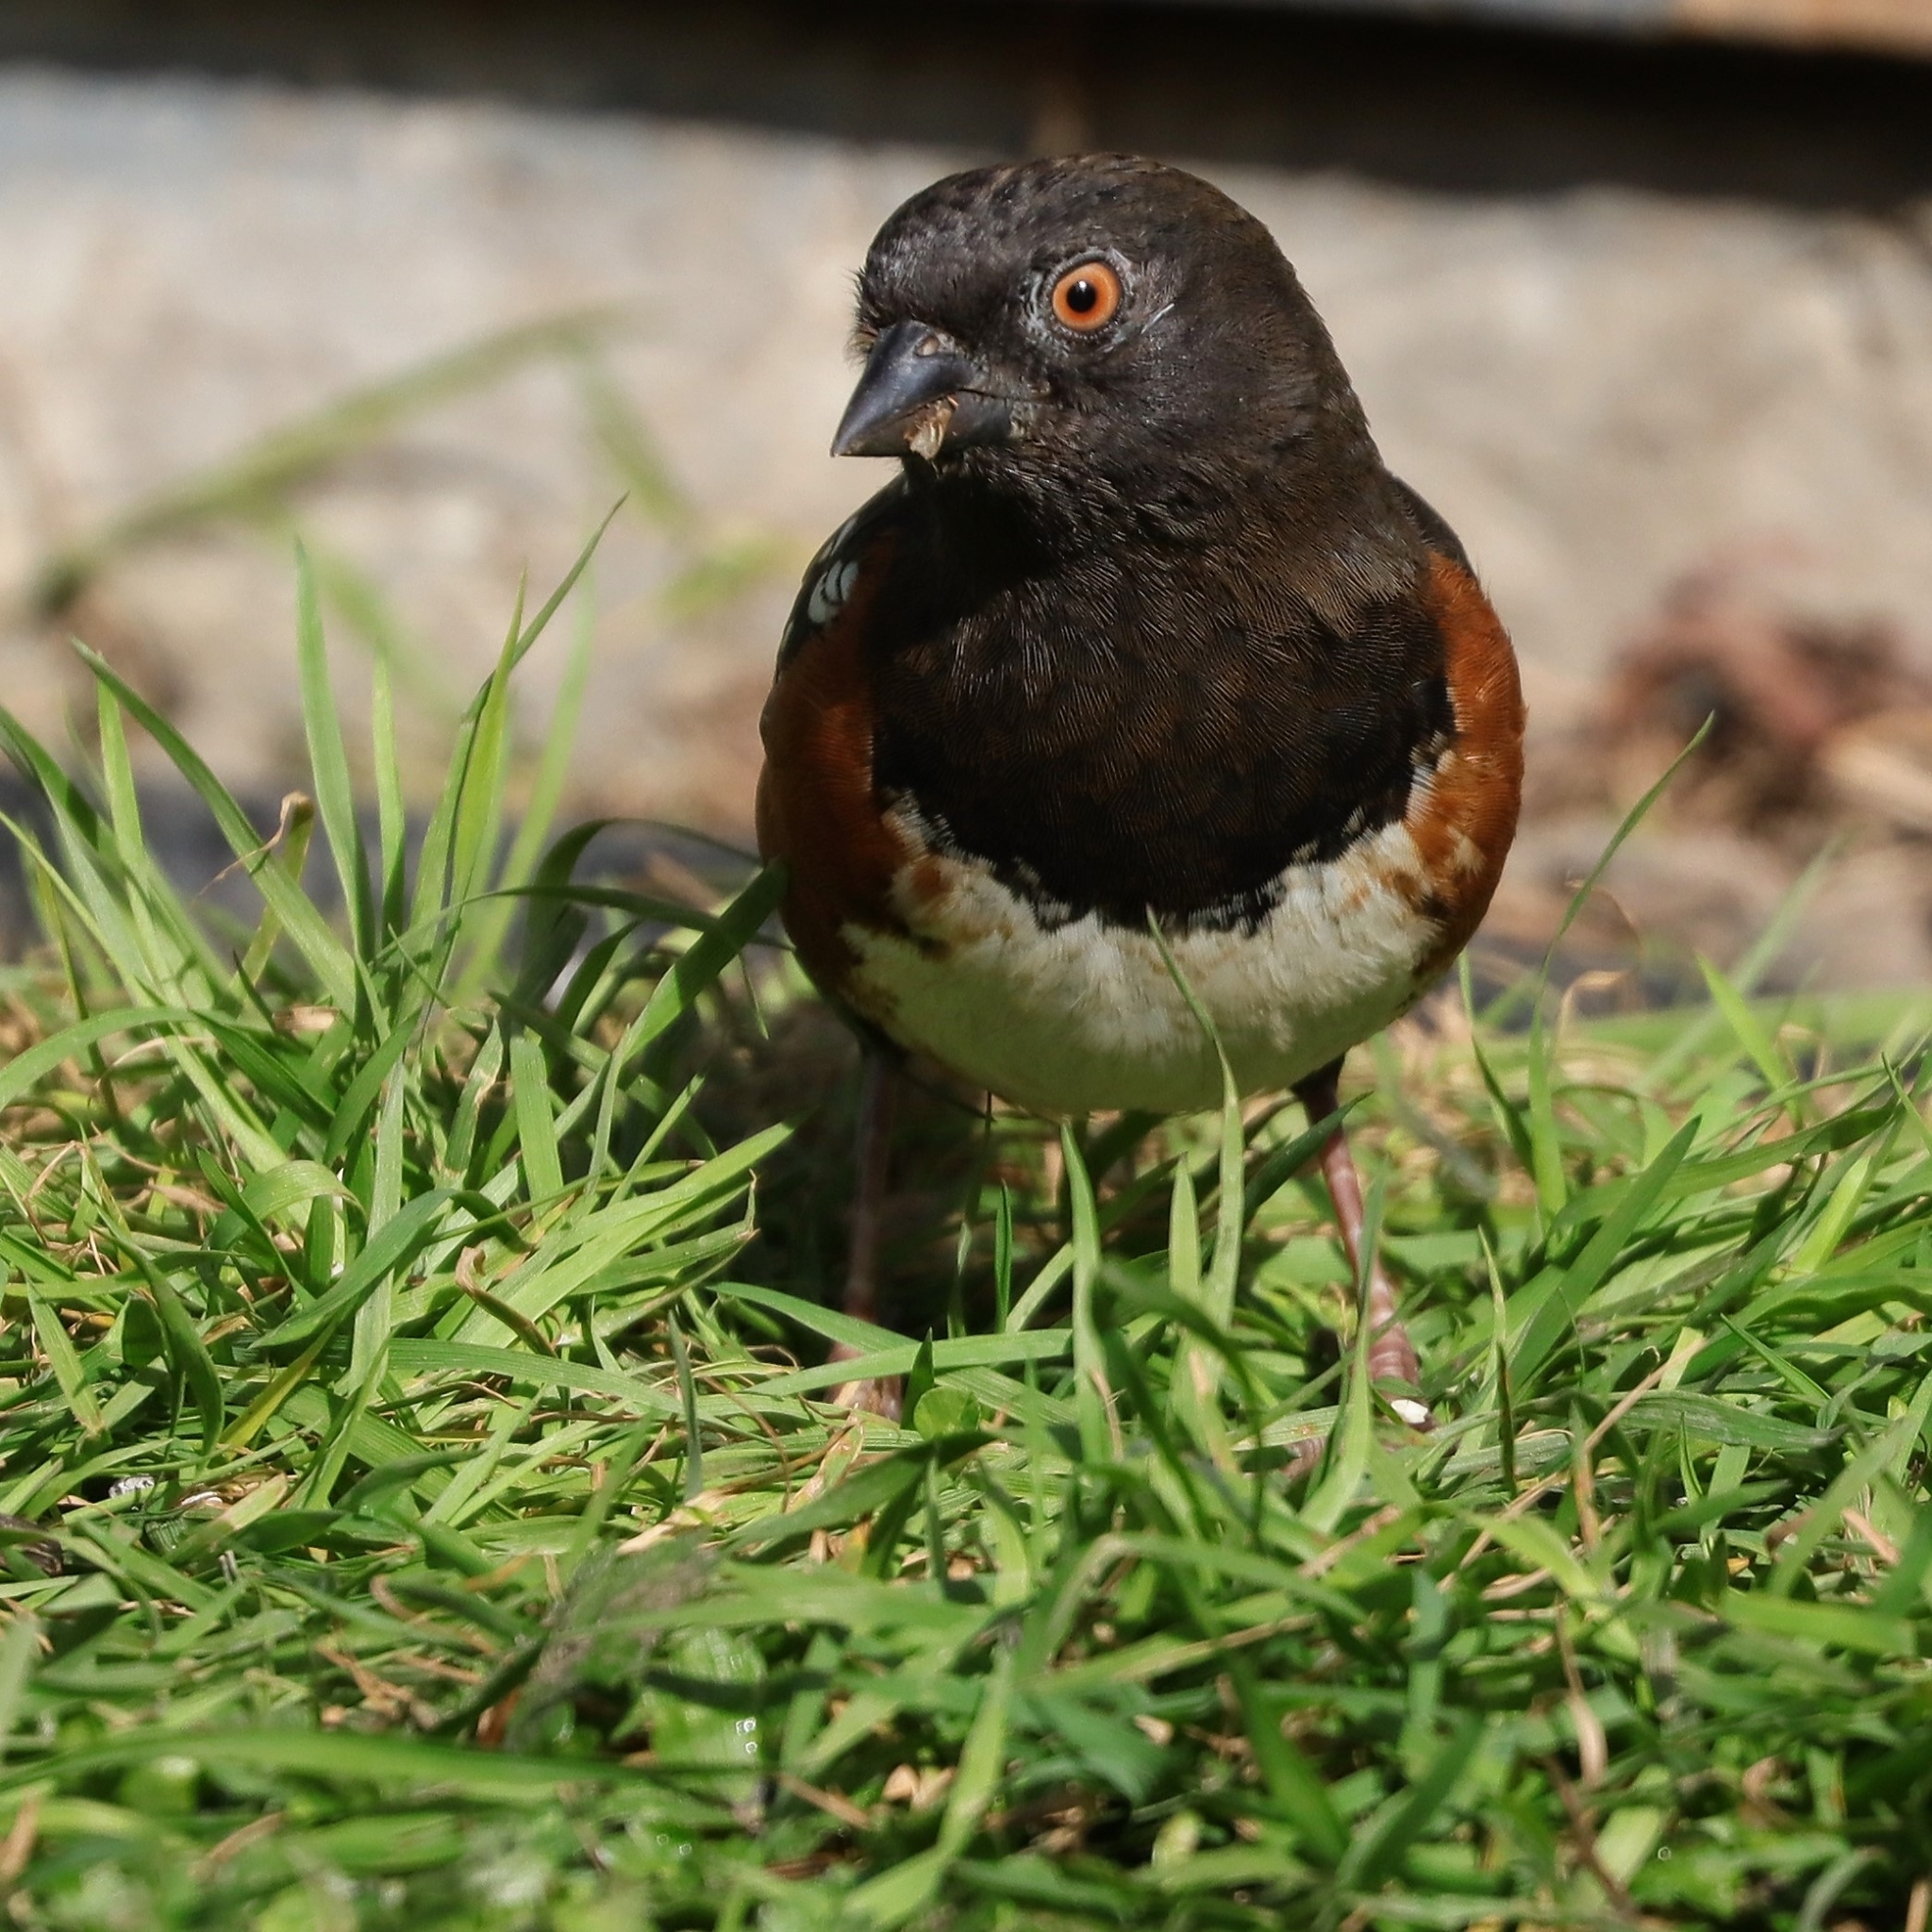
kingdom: Animalia
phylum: Chordata
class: Aves
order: Passeriformes
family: Passerellidae
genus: Pipilo
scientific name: Pipilo maculatus
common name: Spotted towhee
